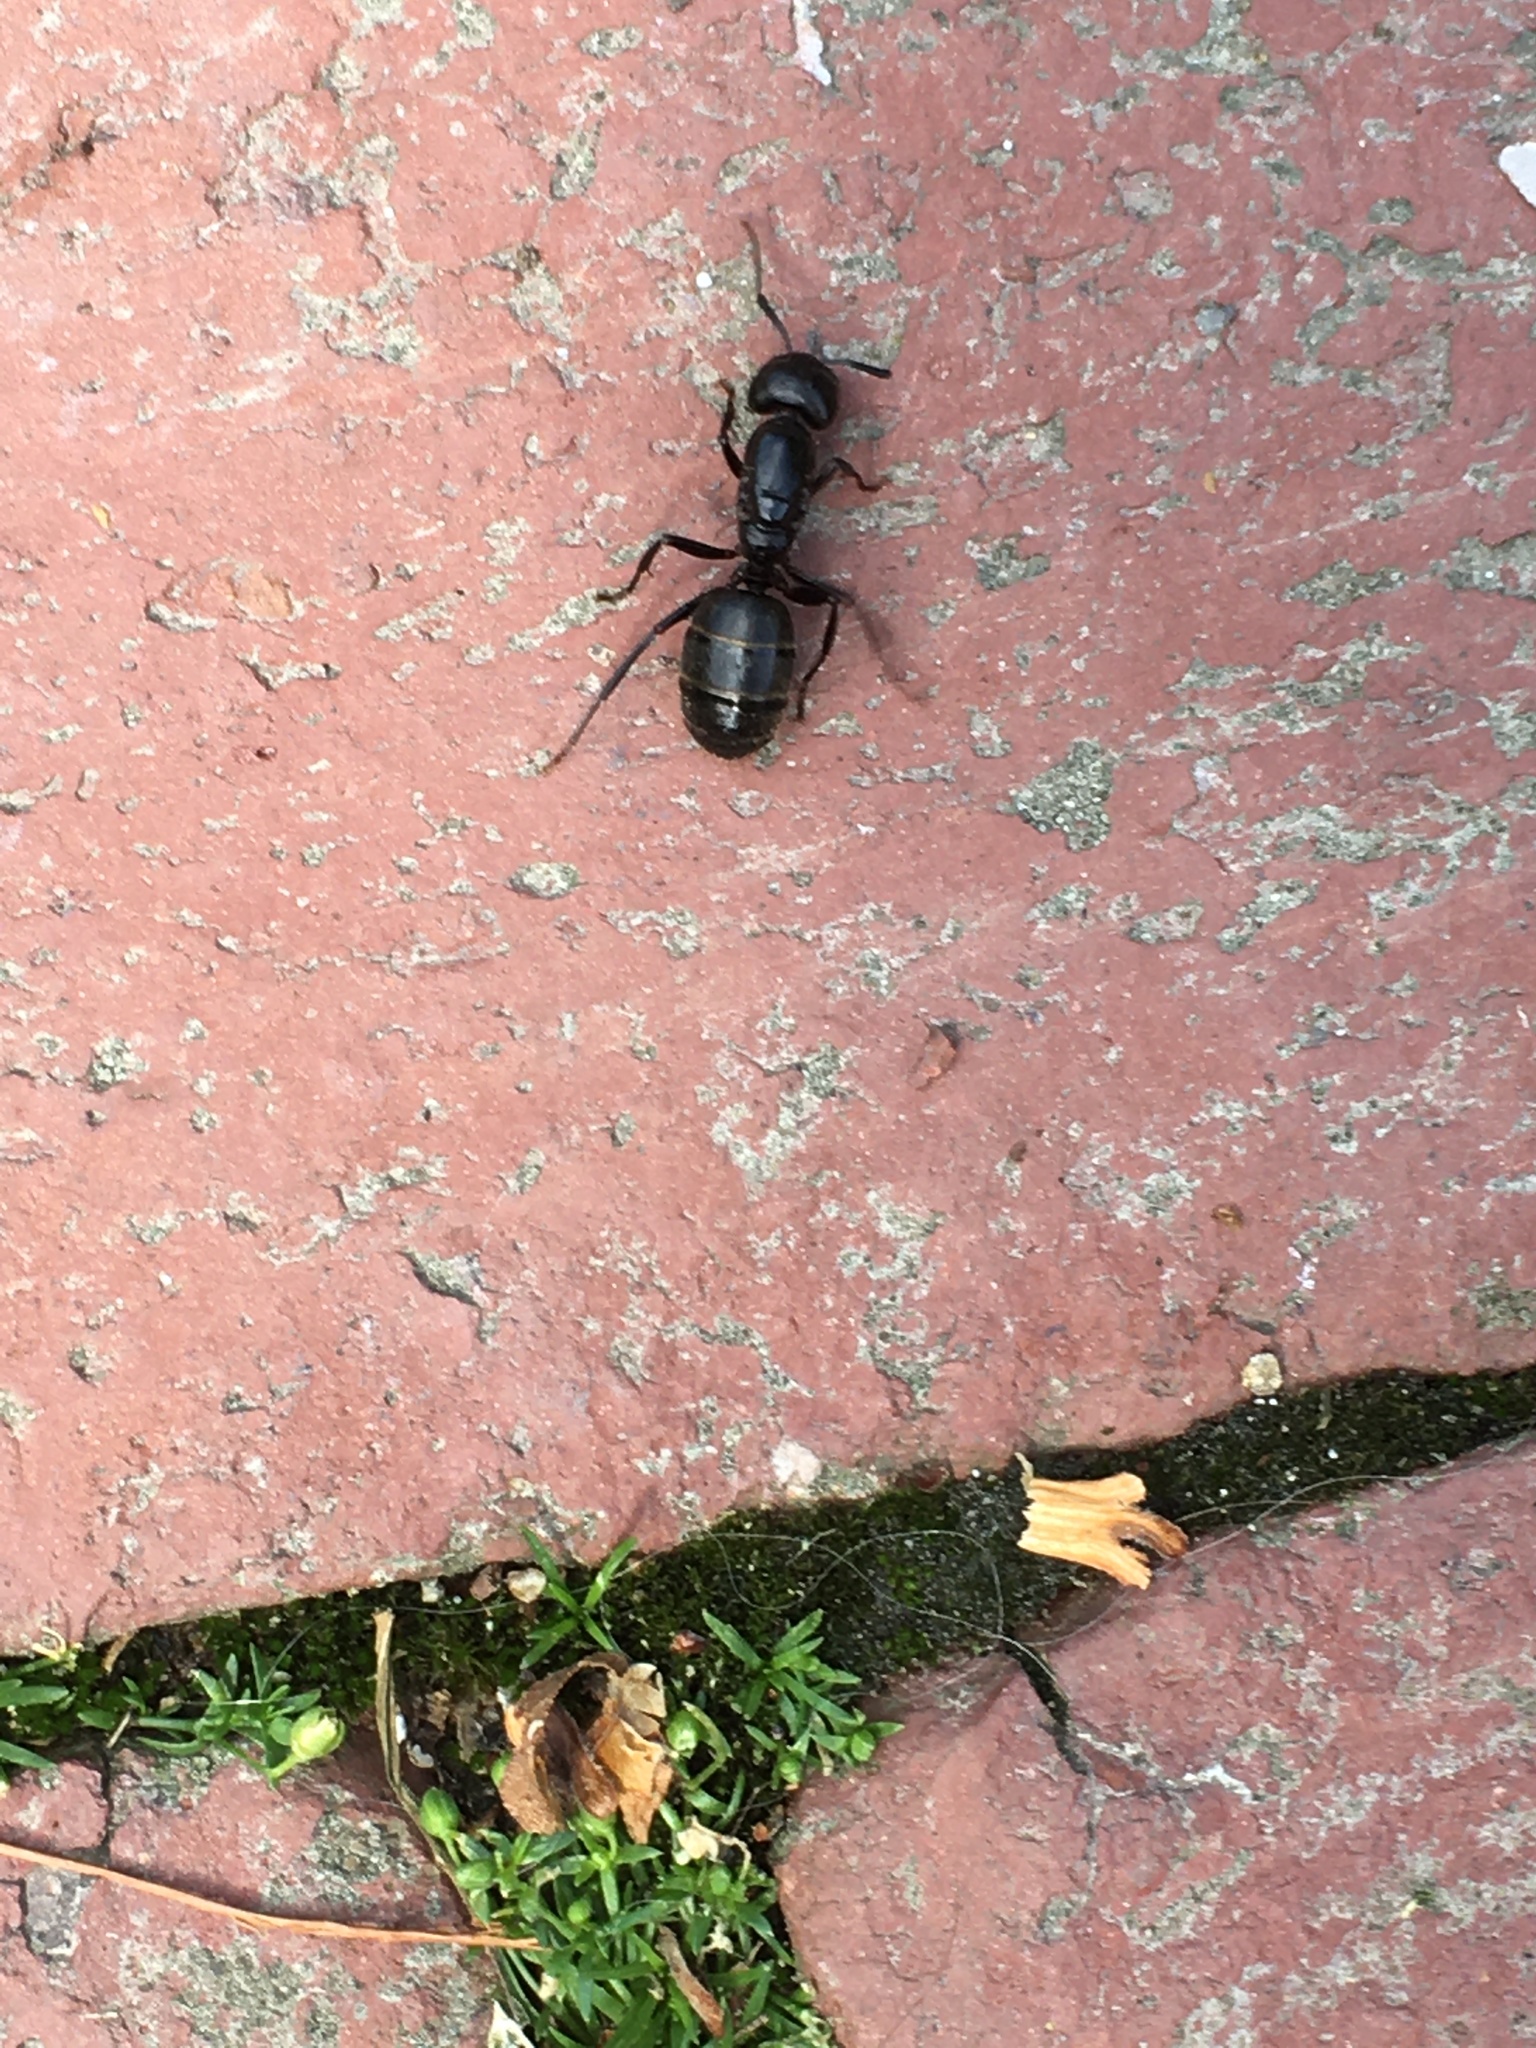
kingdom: Animalia
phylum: Arthropoda
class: Insecta
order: Hymenoptera
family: Formicidae
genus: Camponotus
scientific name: Camponotus pennsylvanicus
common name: Black carpenter ant
